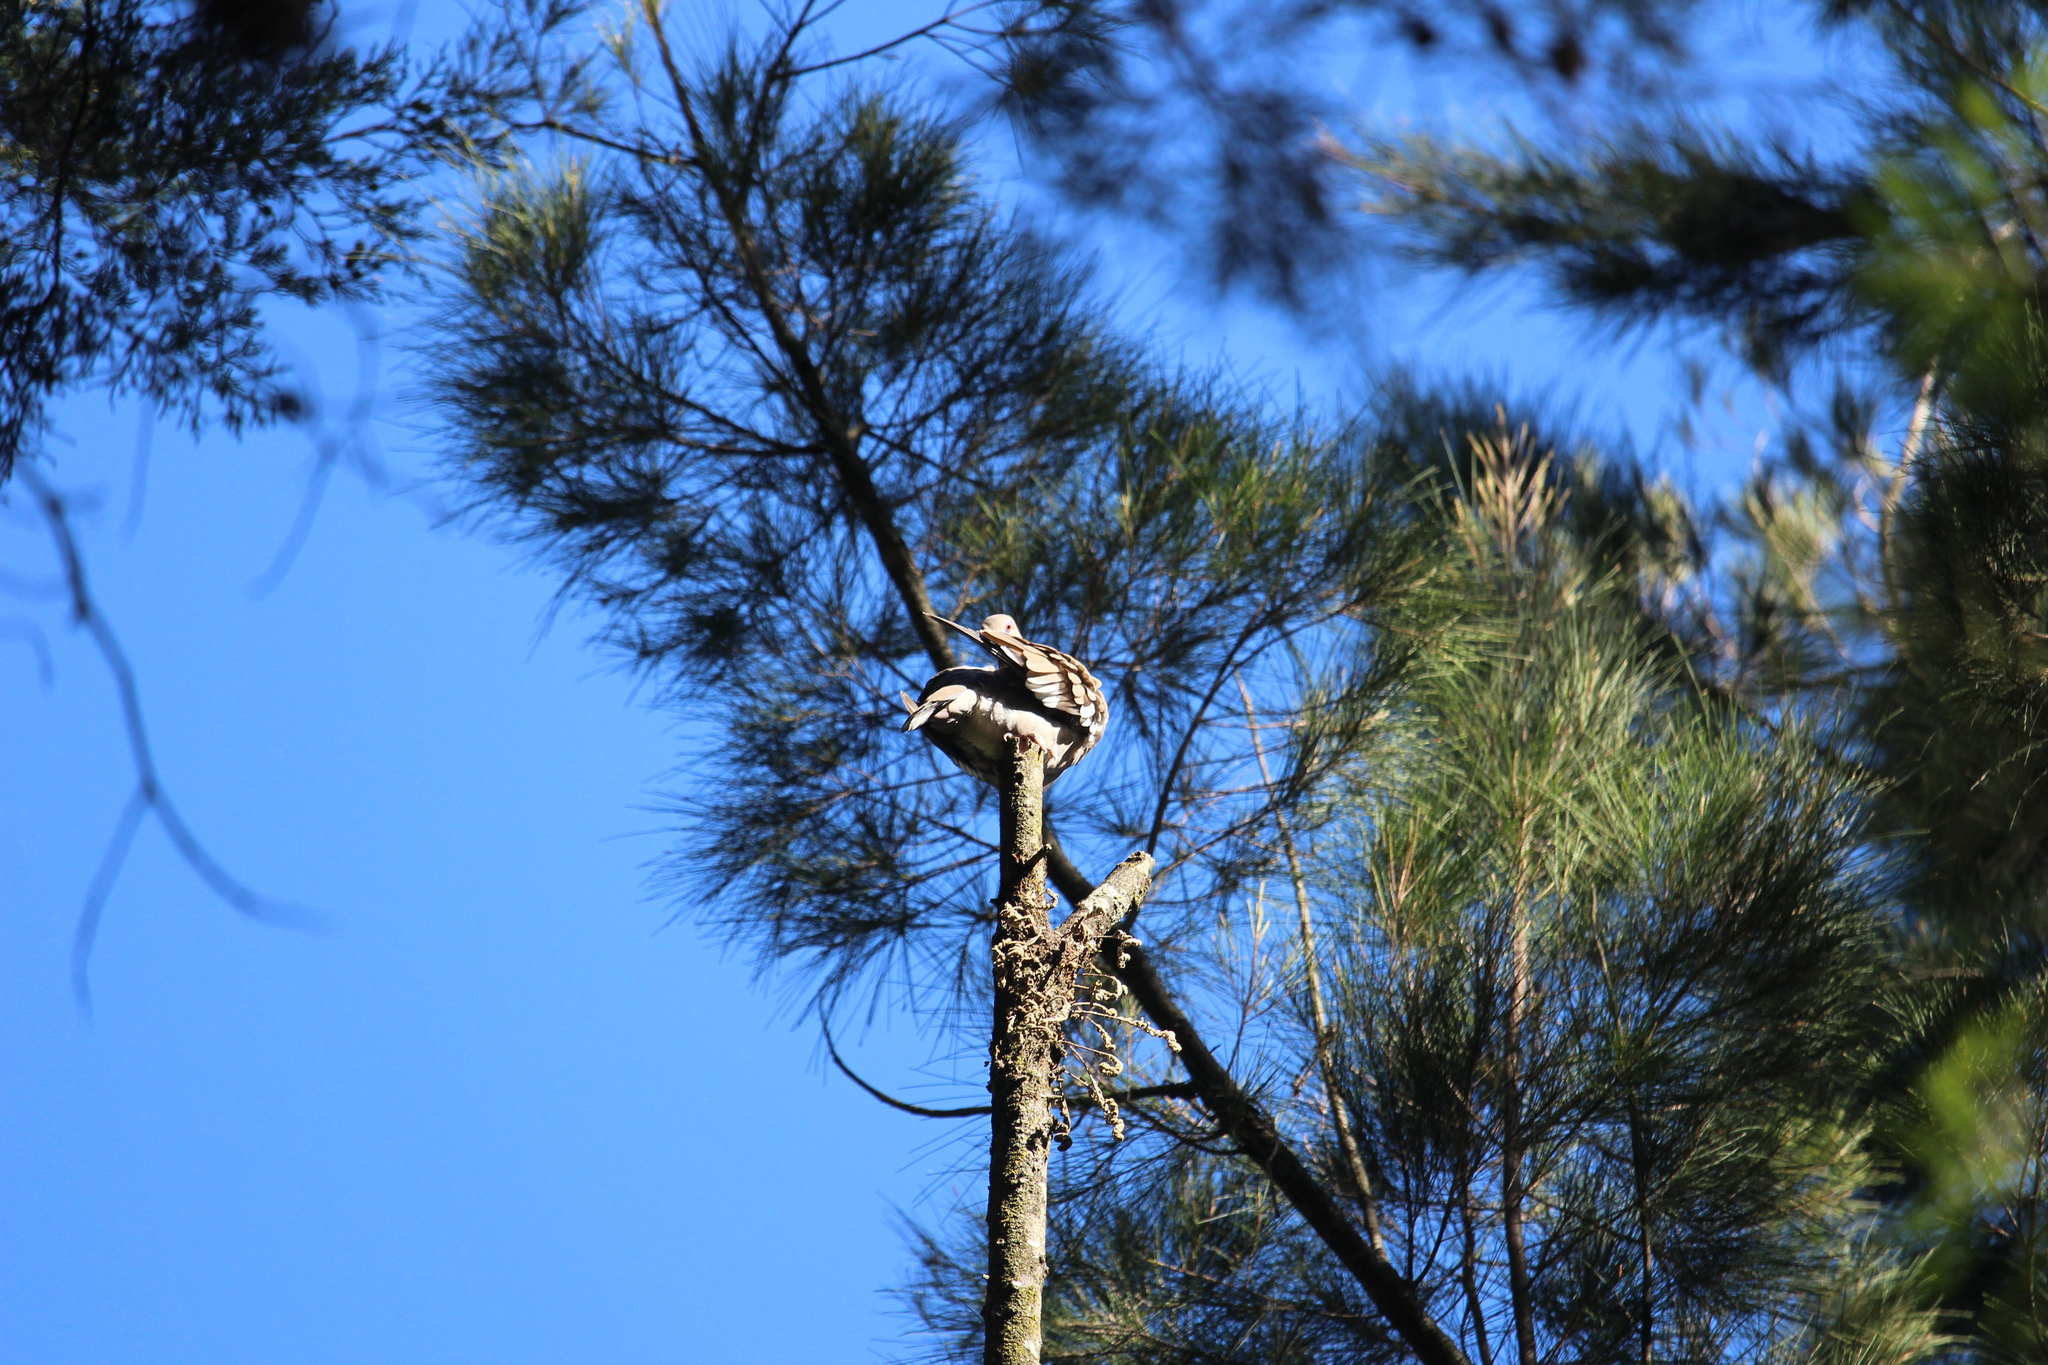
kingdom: Animalia
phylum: Chordata
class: Aves
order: Columbiformes
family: Columbidae
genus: Zenaida
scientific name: Zenaida asiatica
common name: White-winged dove
